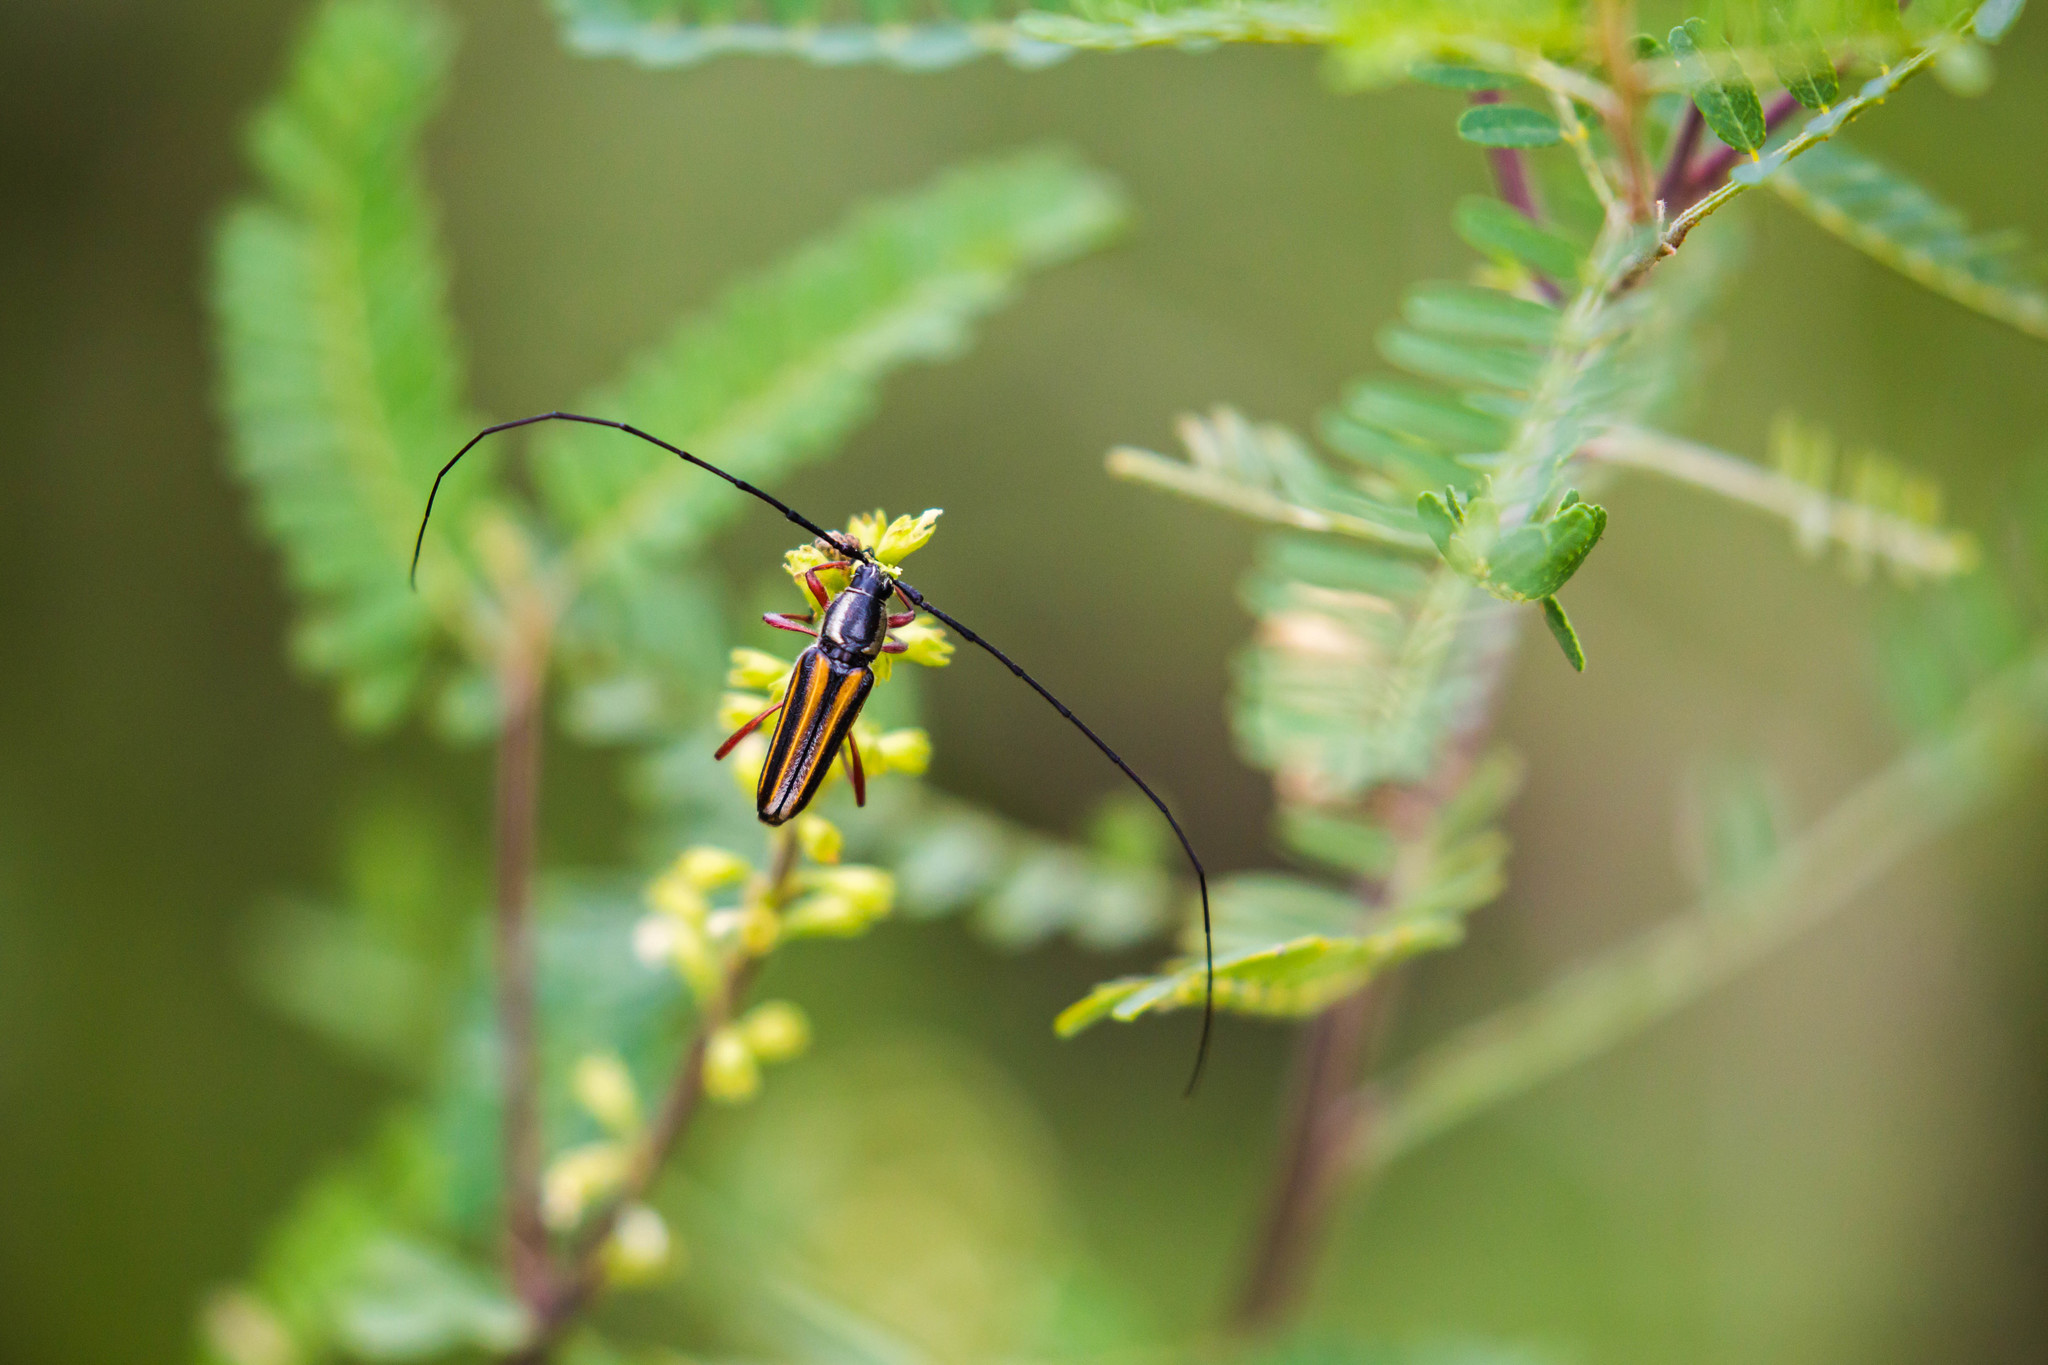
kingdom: Animalia
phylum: Arthropoda
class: Insecta
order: Coleoptera
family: Cerambycidae
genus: Sphaenothecus
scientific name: Sphaenothecus bilineatus
